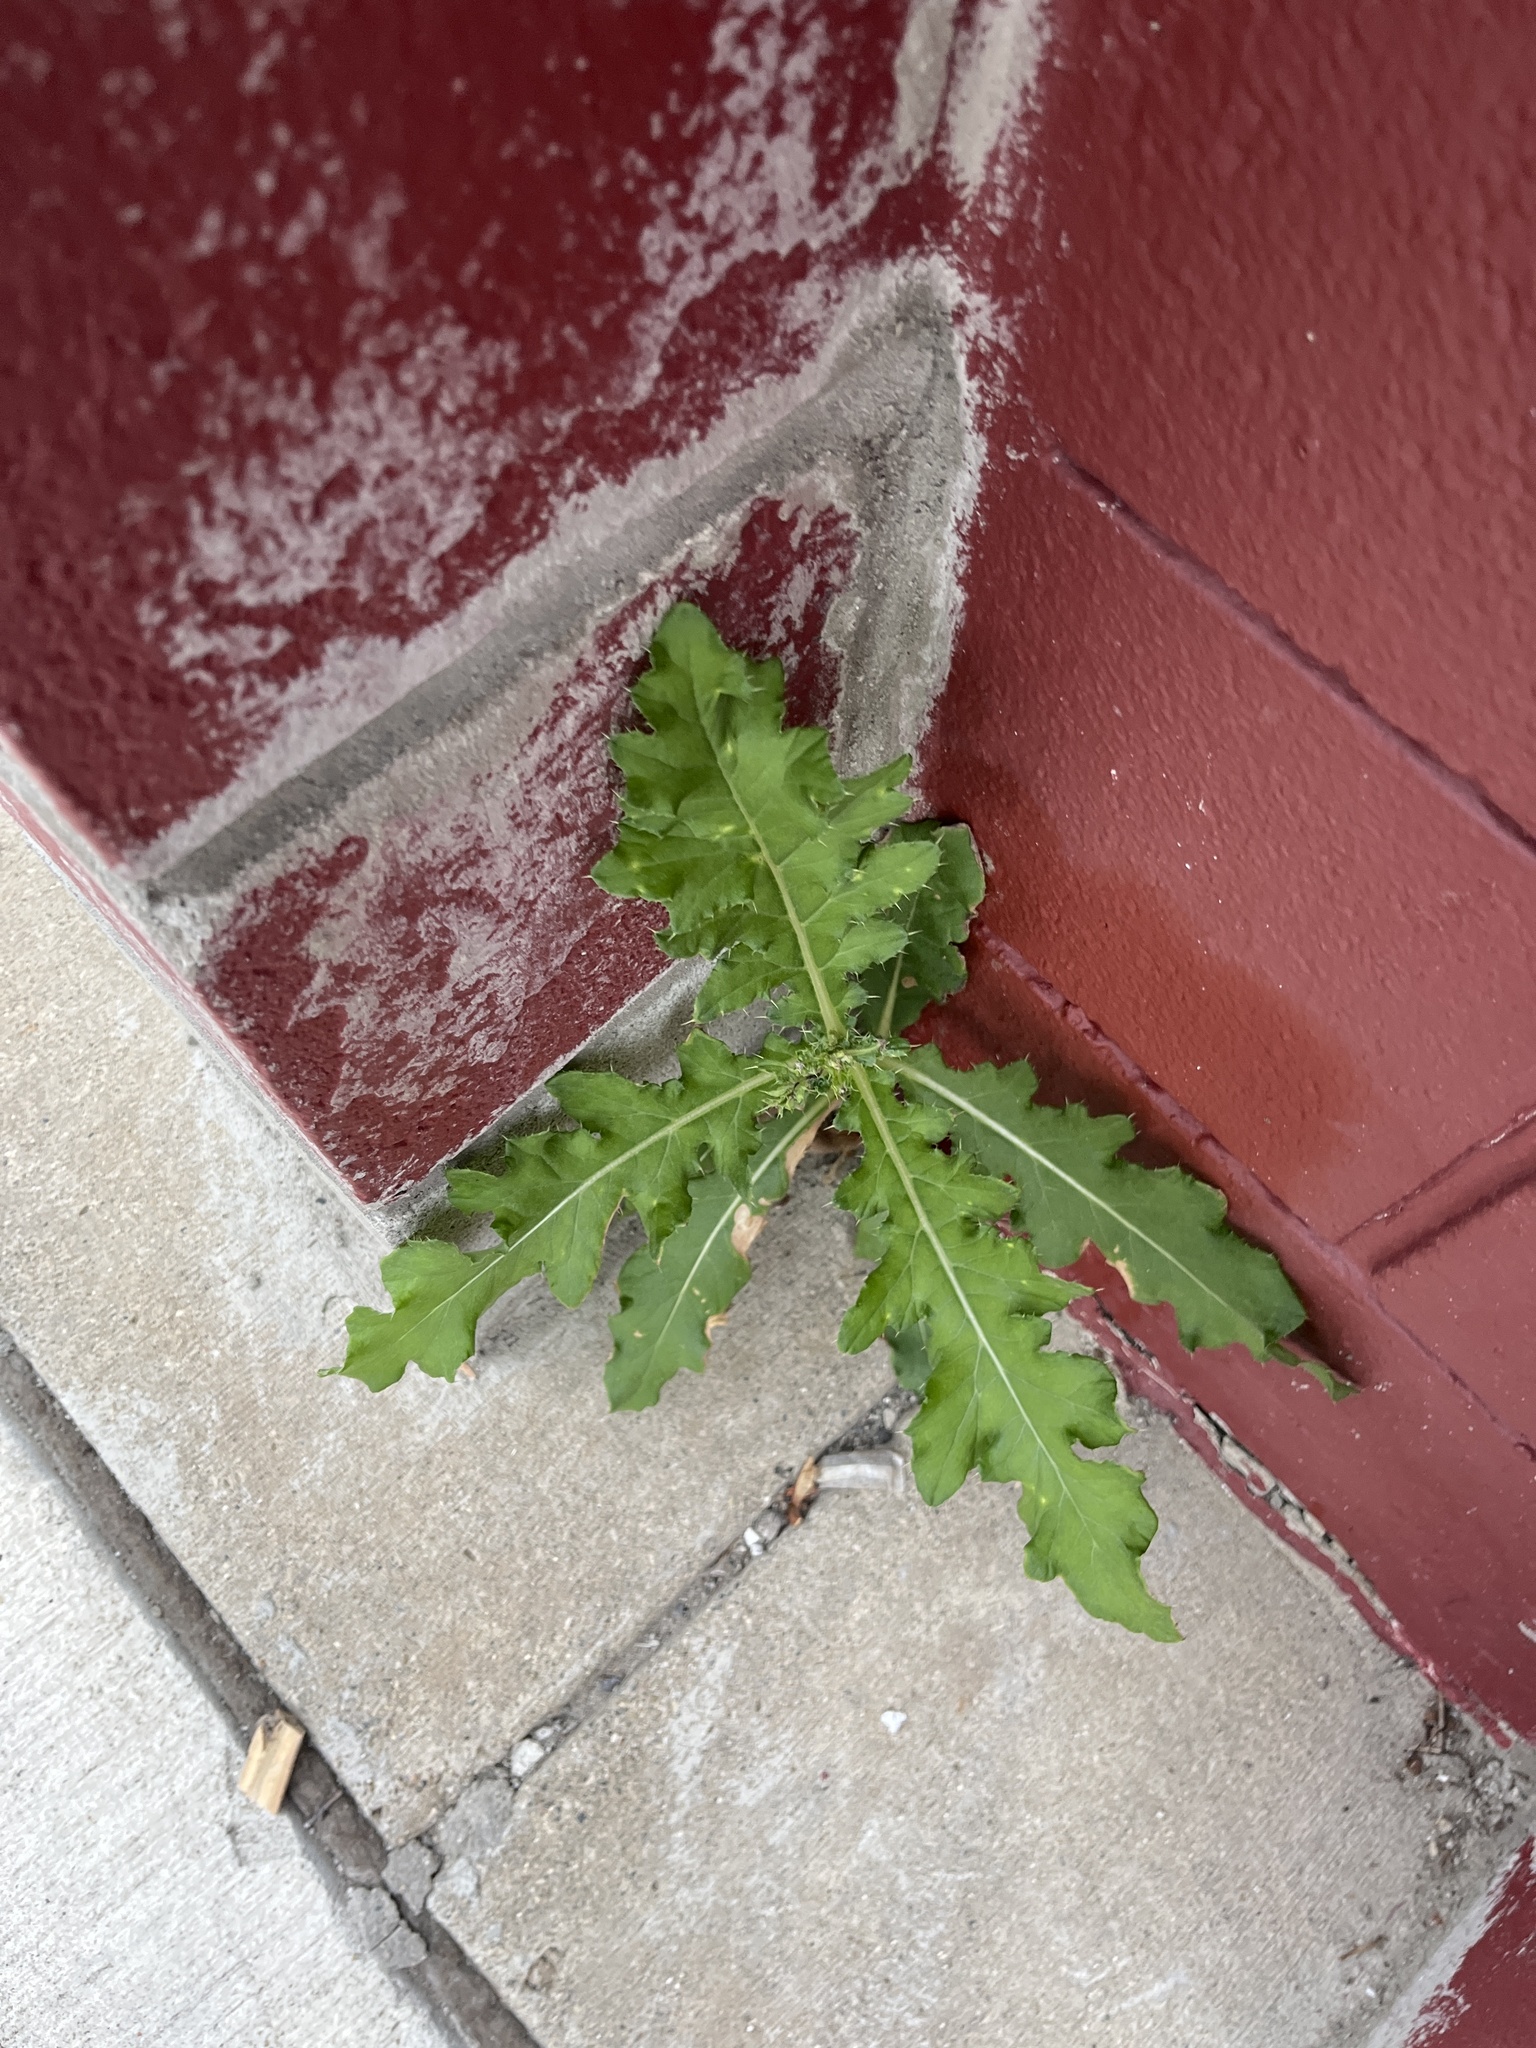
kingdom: Plantae
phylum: Tracheophyta
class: Magnoliopsida
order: Asterales
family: Asteraceae
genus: Cirsium
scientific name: Cirsium arvense
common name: Creeping thistle
